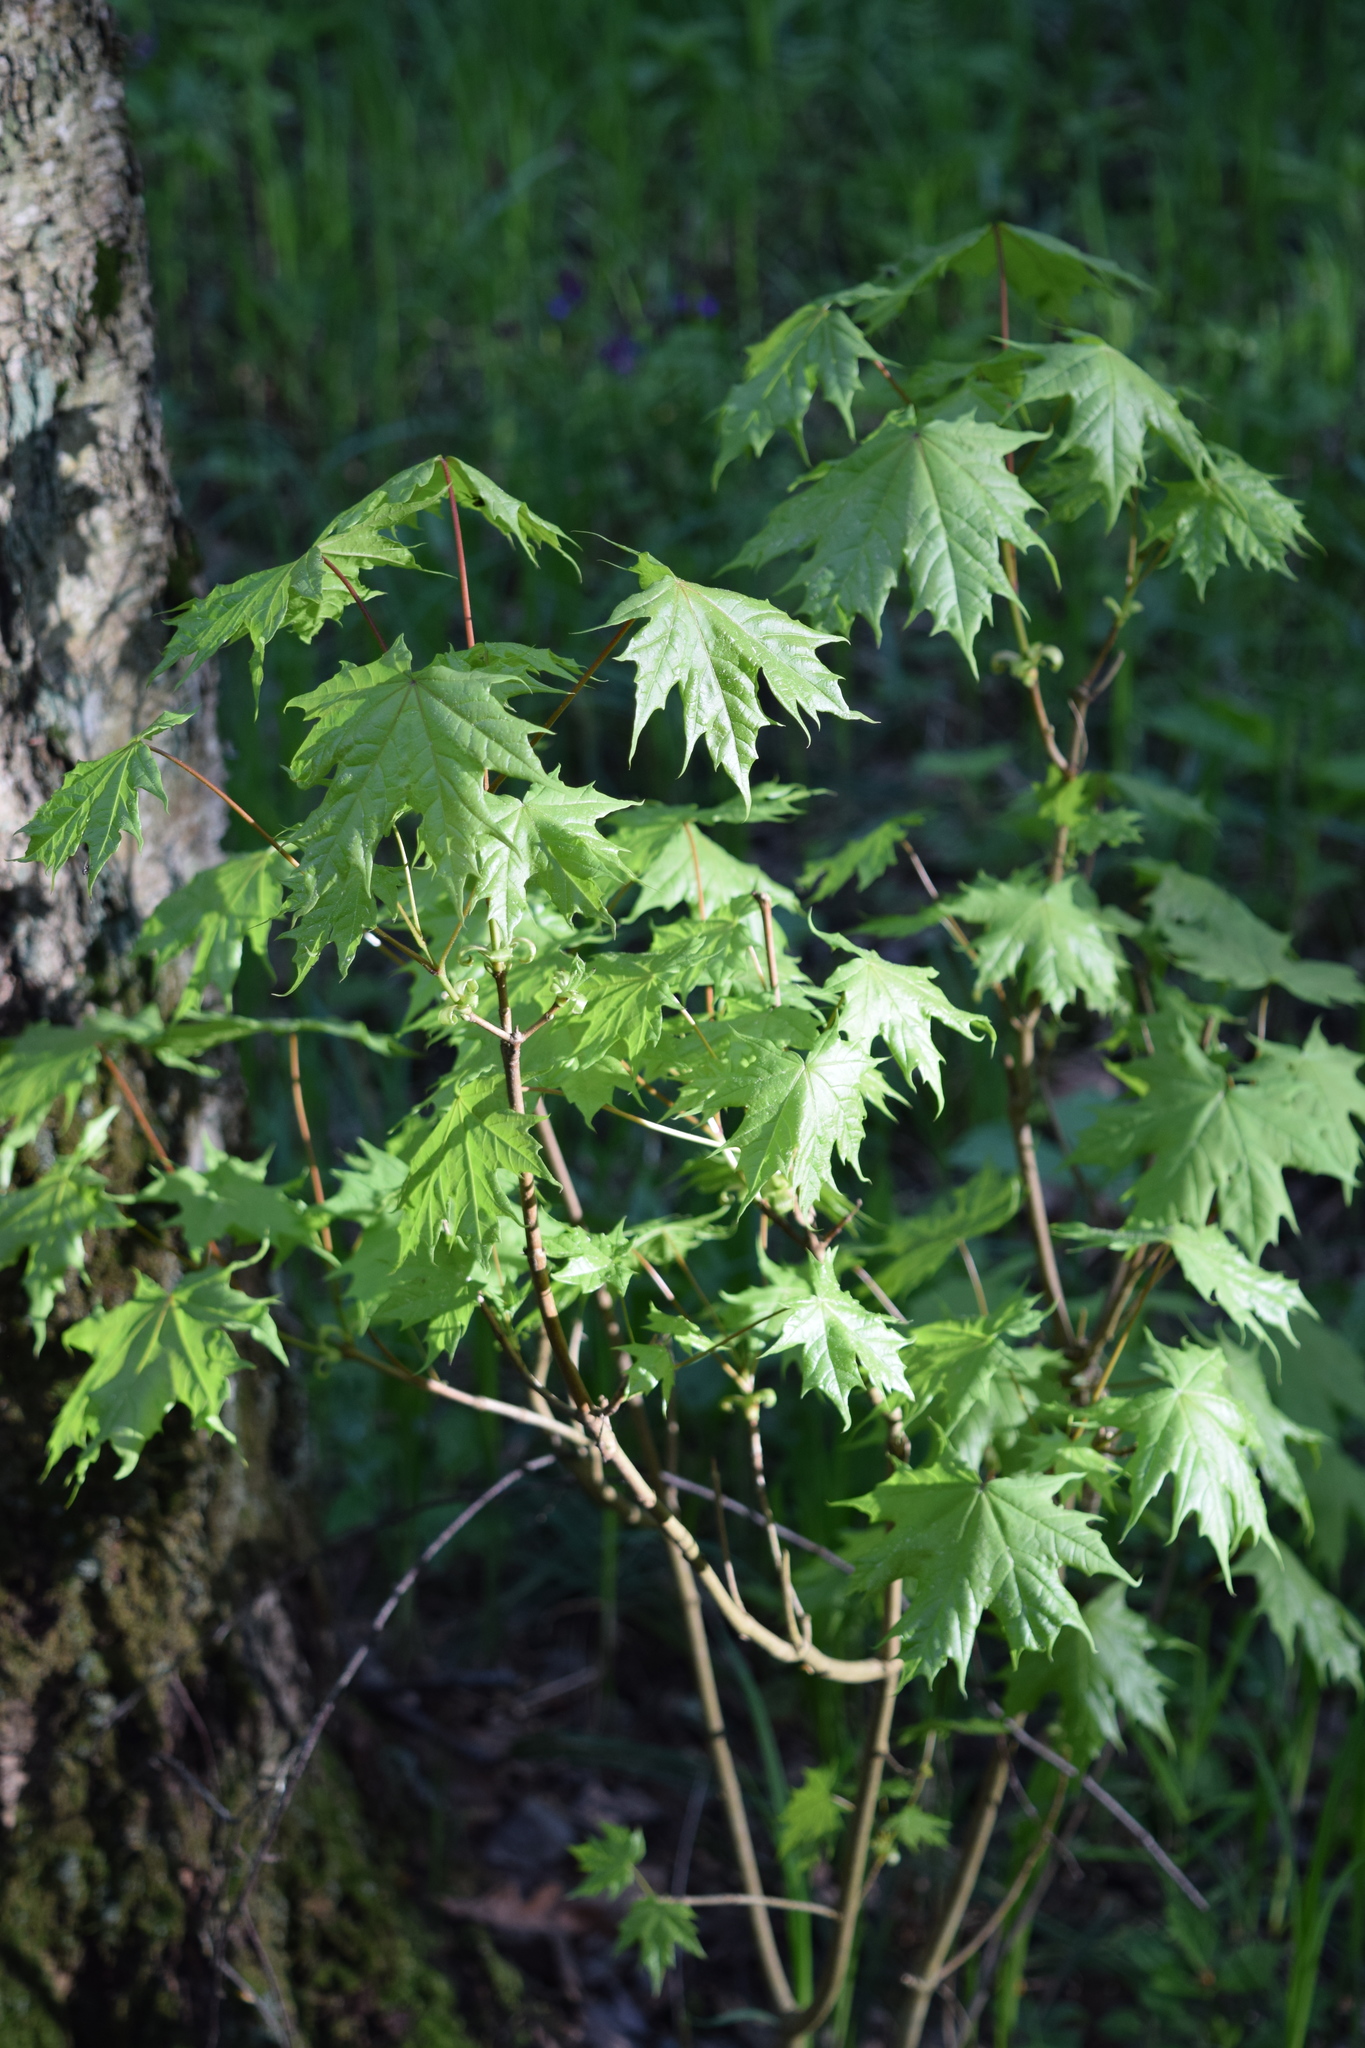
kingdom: Plantae
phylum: Tracheophyta
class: Magnoliopsida
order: Sapindales
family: Sapindaceae
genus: Acer
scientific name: Acer platanoides
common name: Norway maple
